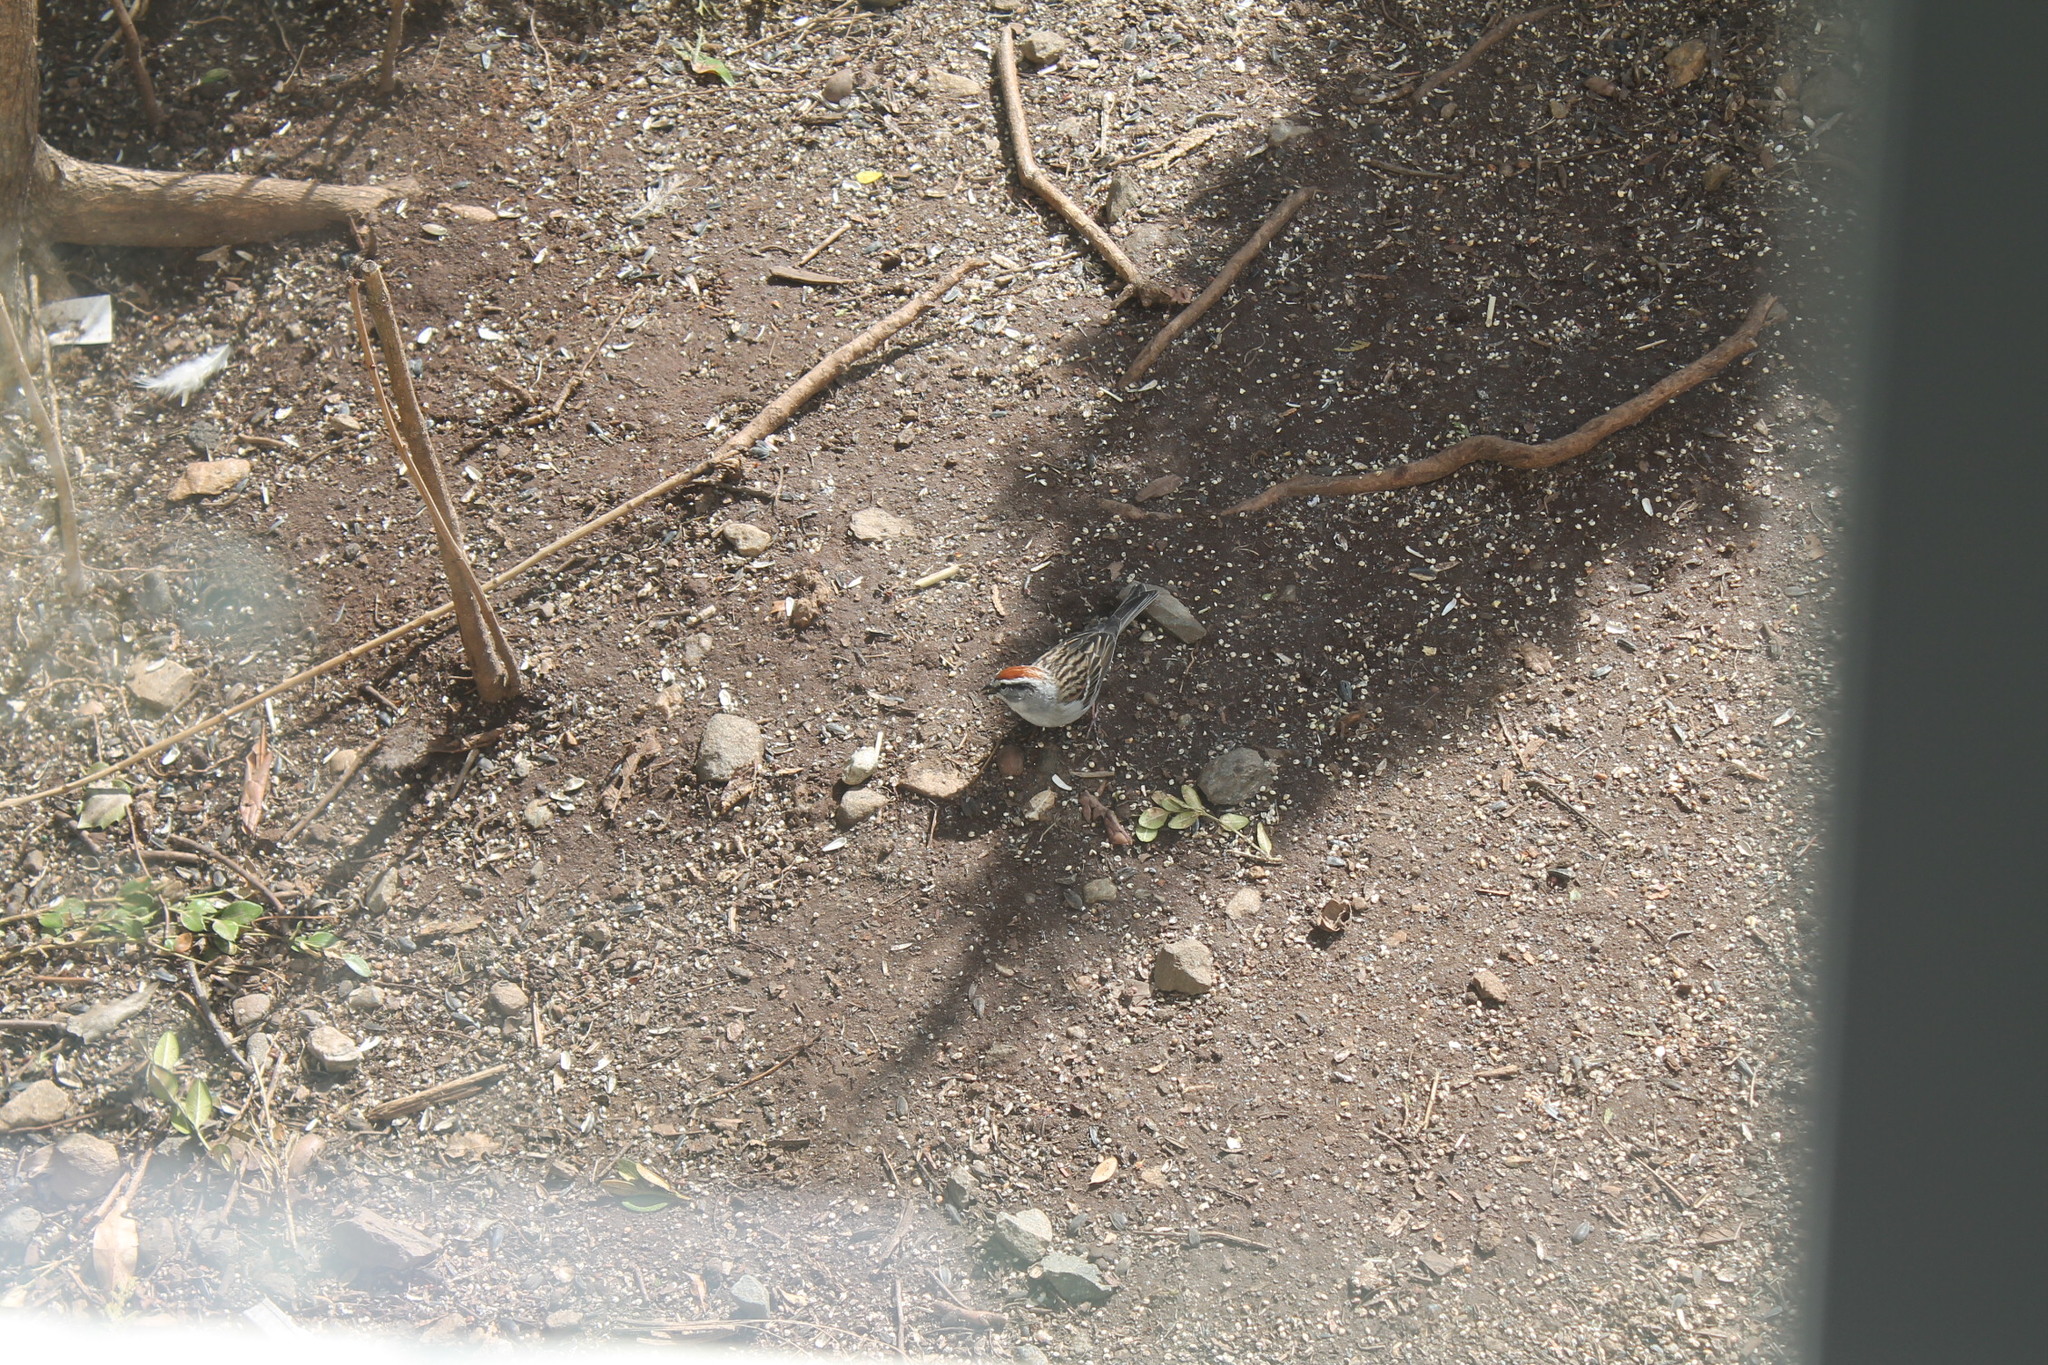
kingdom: Animalia
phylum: Chordata
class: Aves
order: Passeriformes
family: Passerellidae
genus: Spizella
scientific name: Spizella passerina
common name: Chipping sparrow
